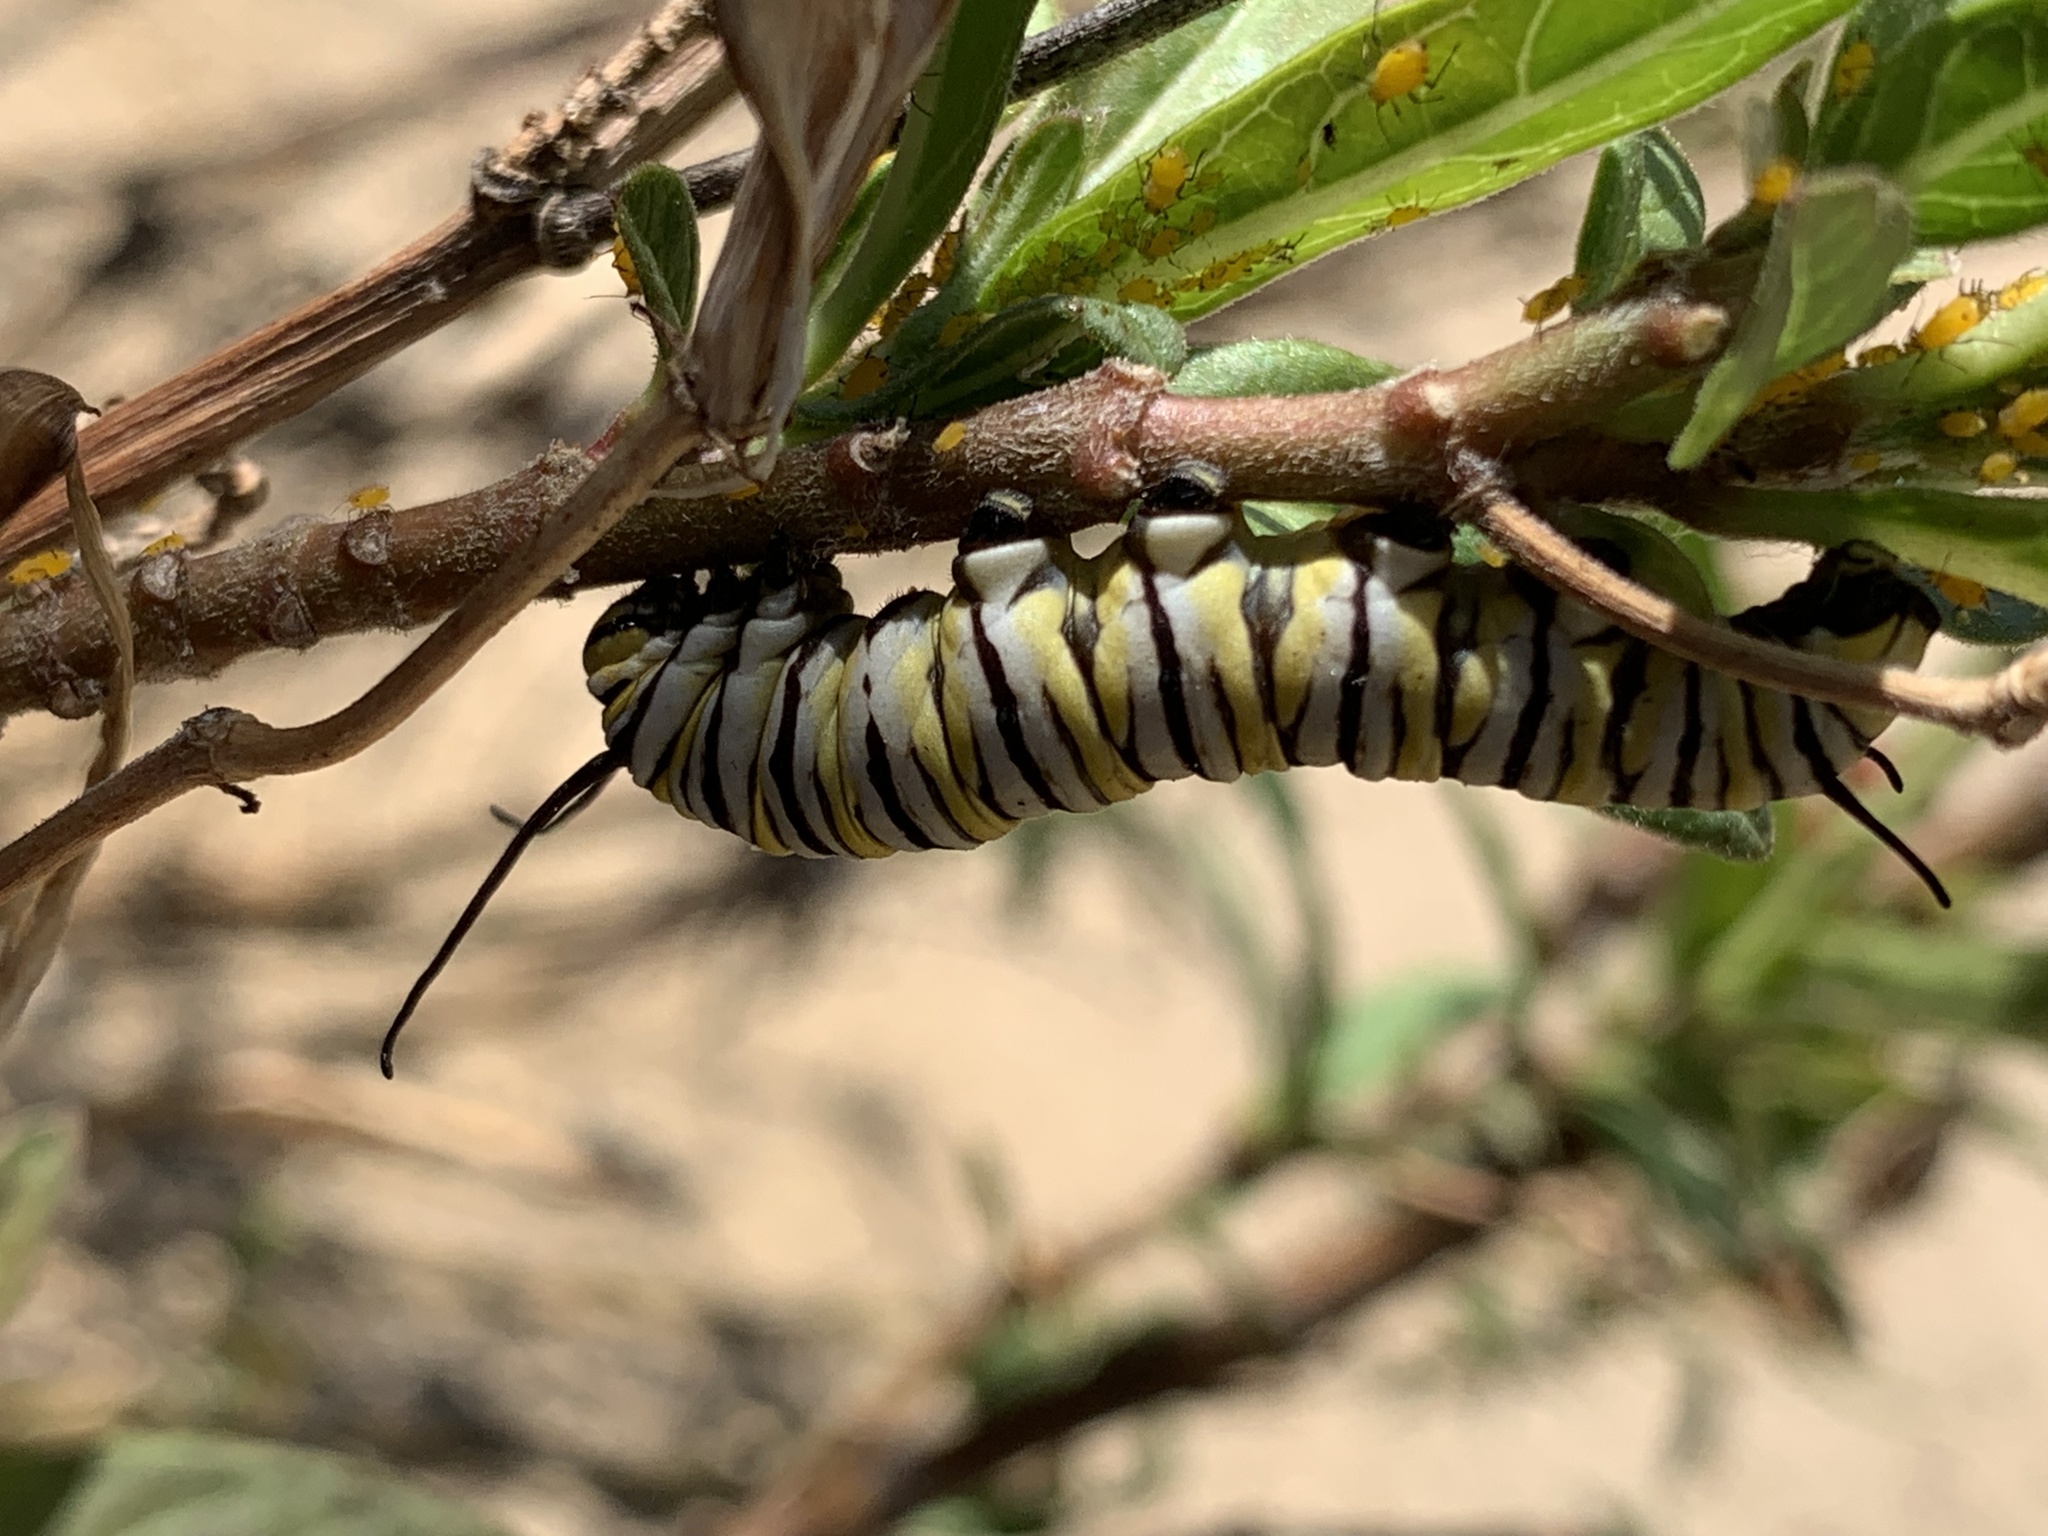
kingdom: Animalia
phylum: Arthropoda
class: Insecta
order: Lepidoptera
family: Nymphalidae
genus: Danaus
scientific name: Danaus plexippus
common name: Monarch
